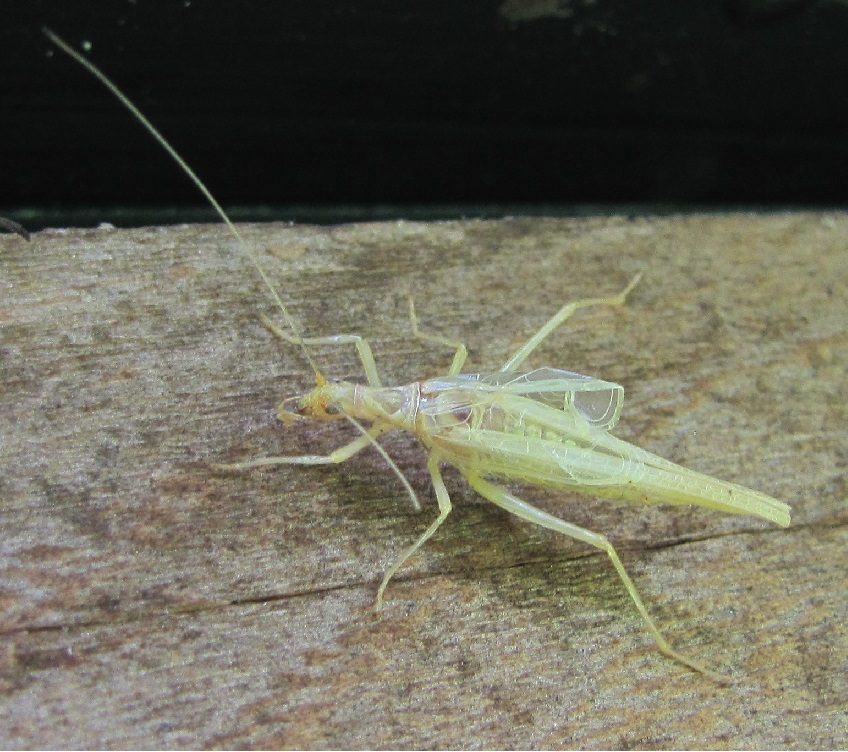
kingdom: Animalia
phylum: Arthropoda
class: Insecta
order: Orthoptera
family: Gryllidae
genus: Neoxabea
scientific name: Neoxabea bipunctata
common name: Two-spotted tree cricket
